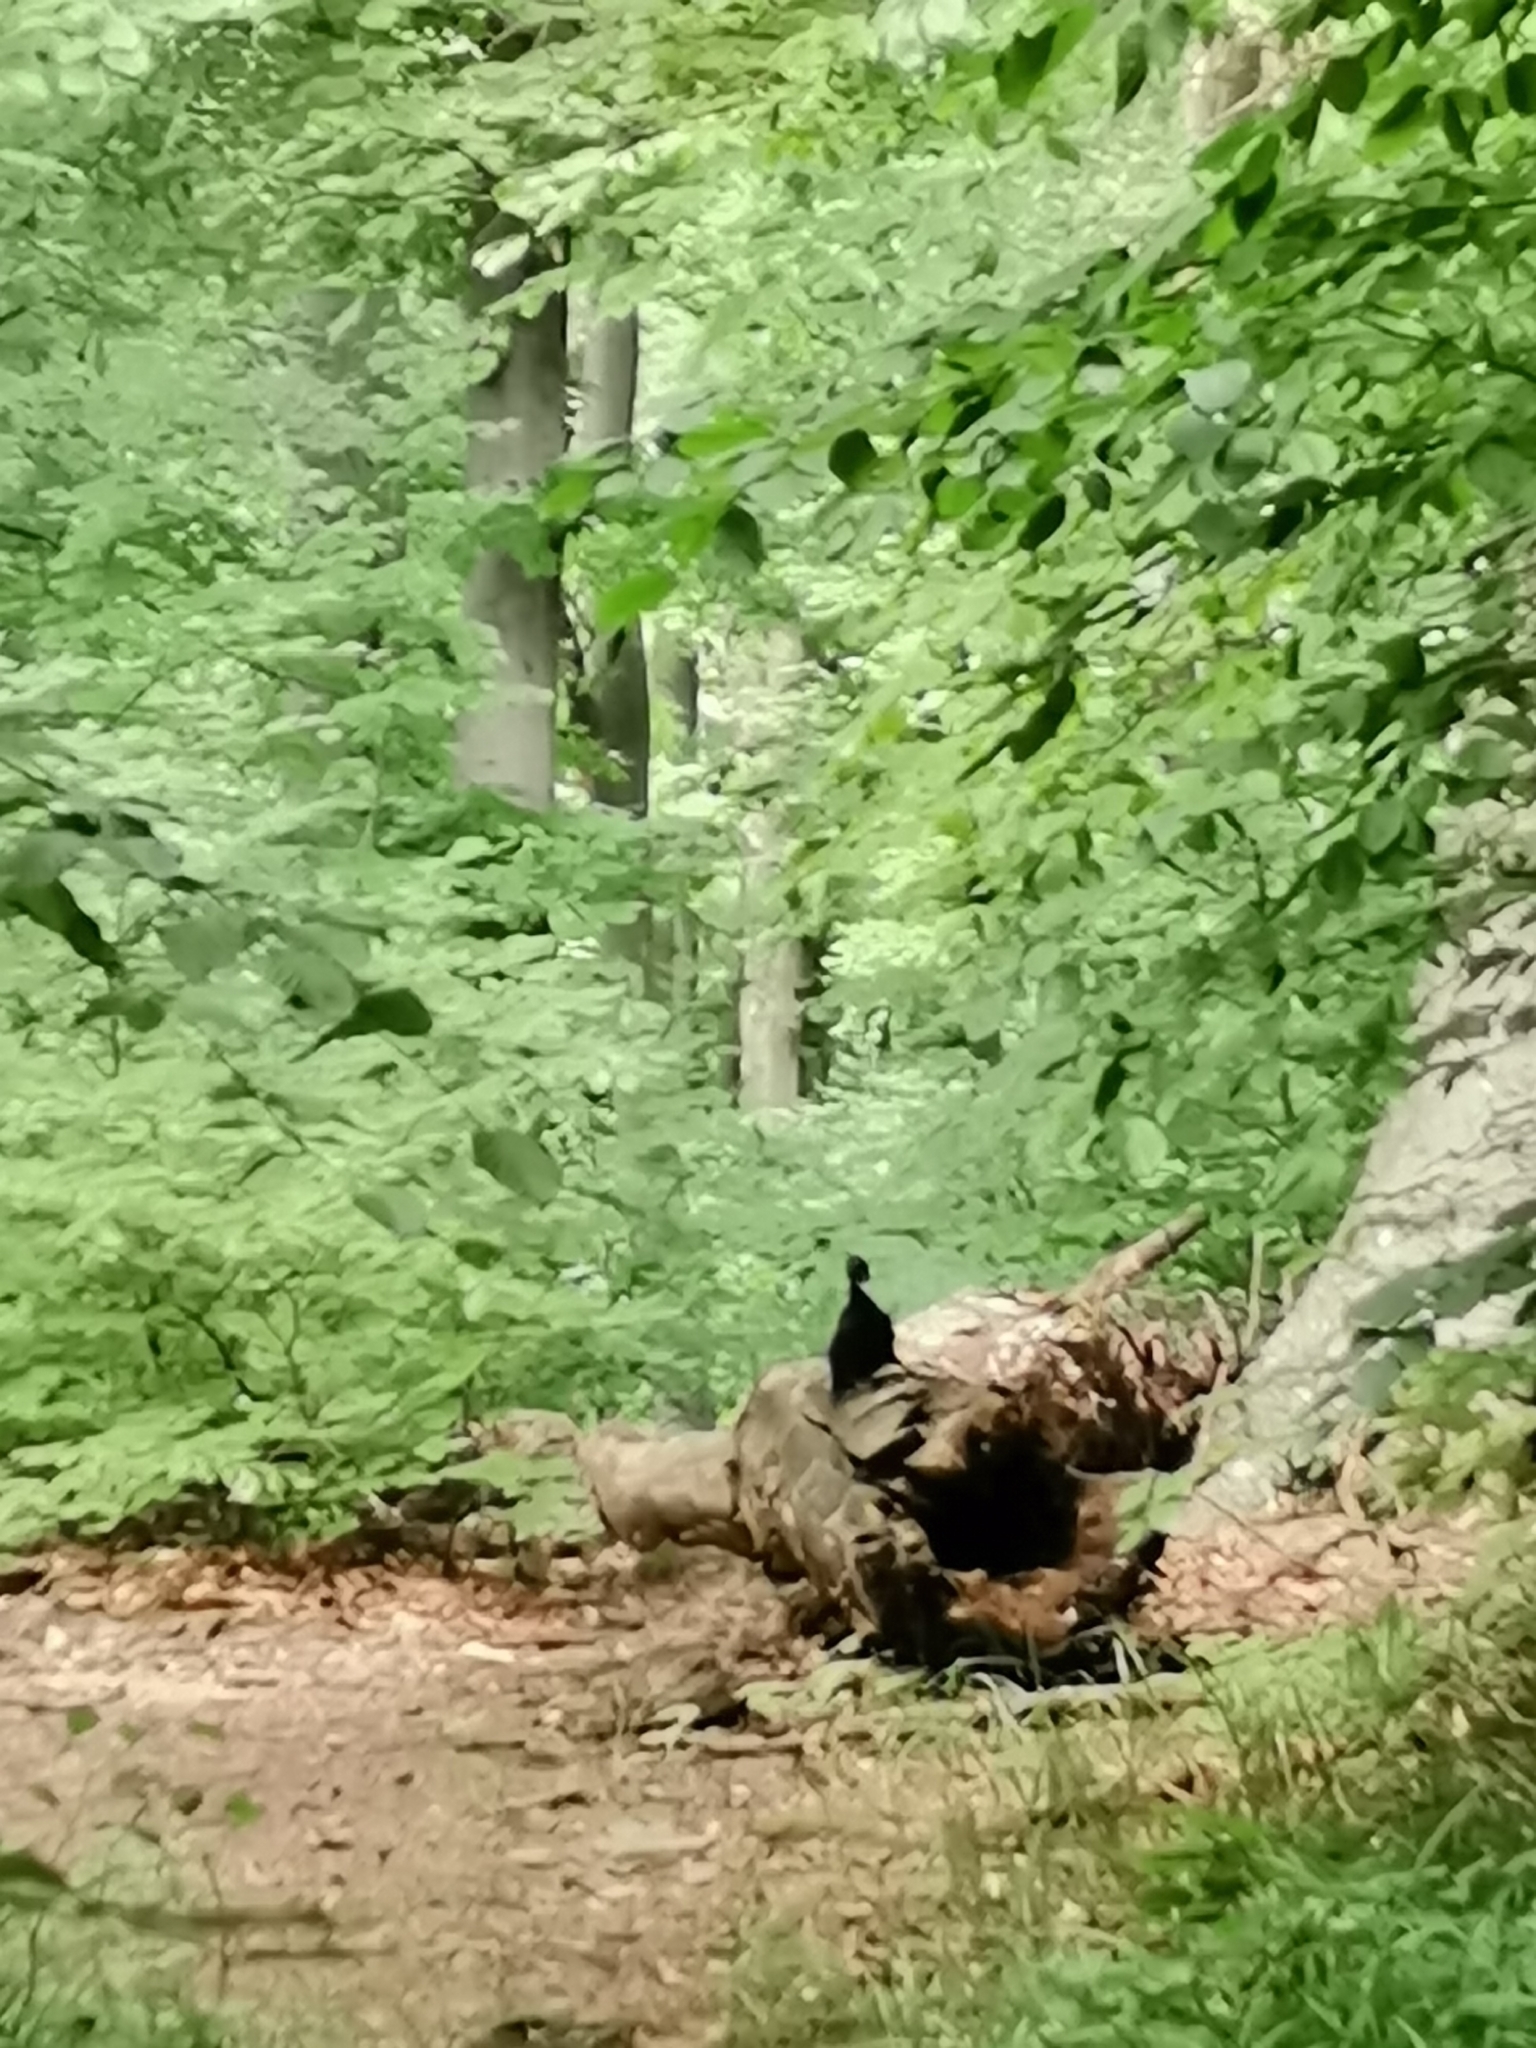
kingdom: Animalia
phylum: Chordata
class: Aves
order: Piciformes
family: Picidae
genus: Dryocopus
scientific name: Dryocopus martius
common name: Black woodpecker
